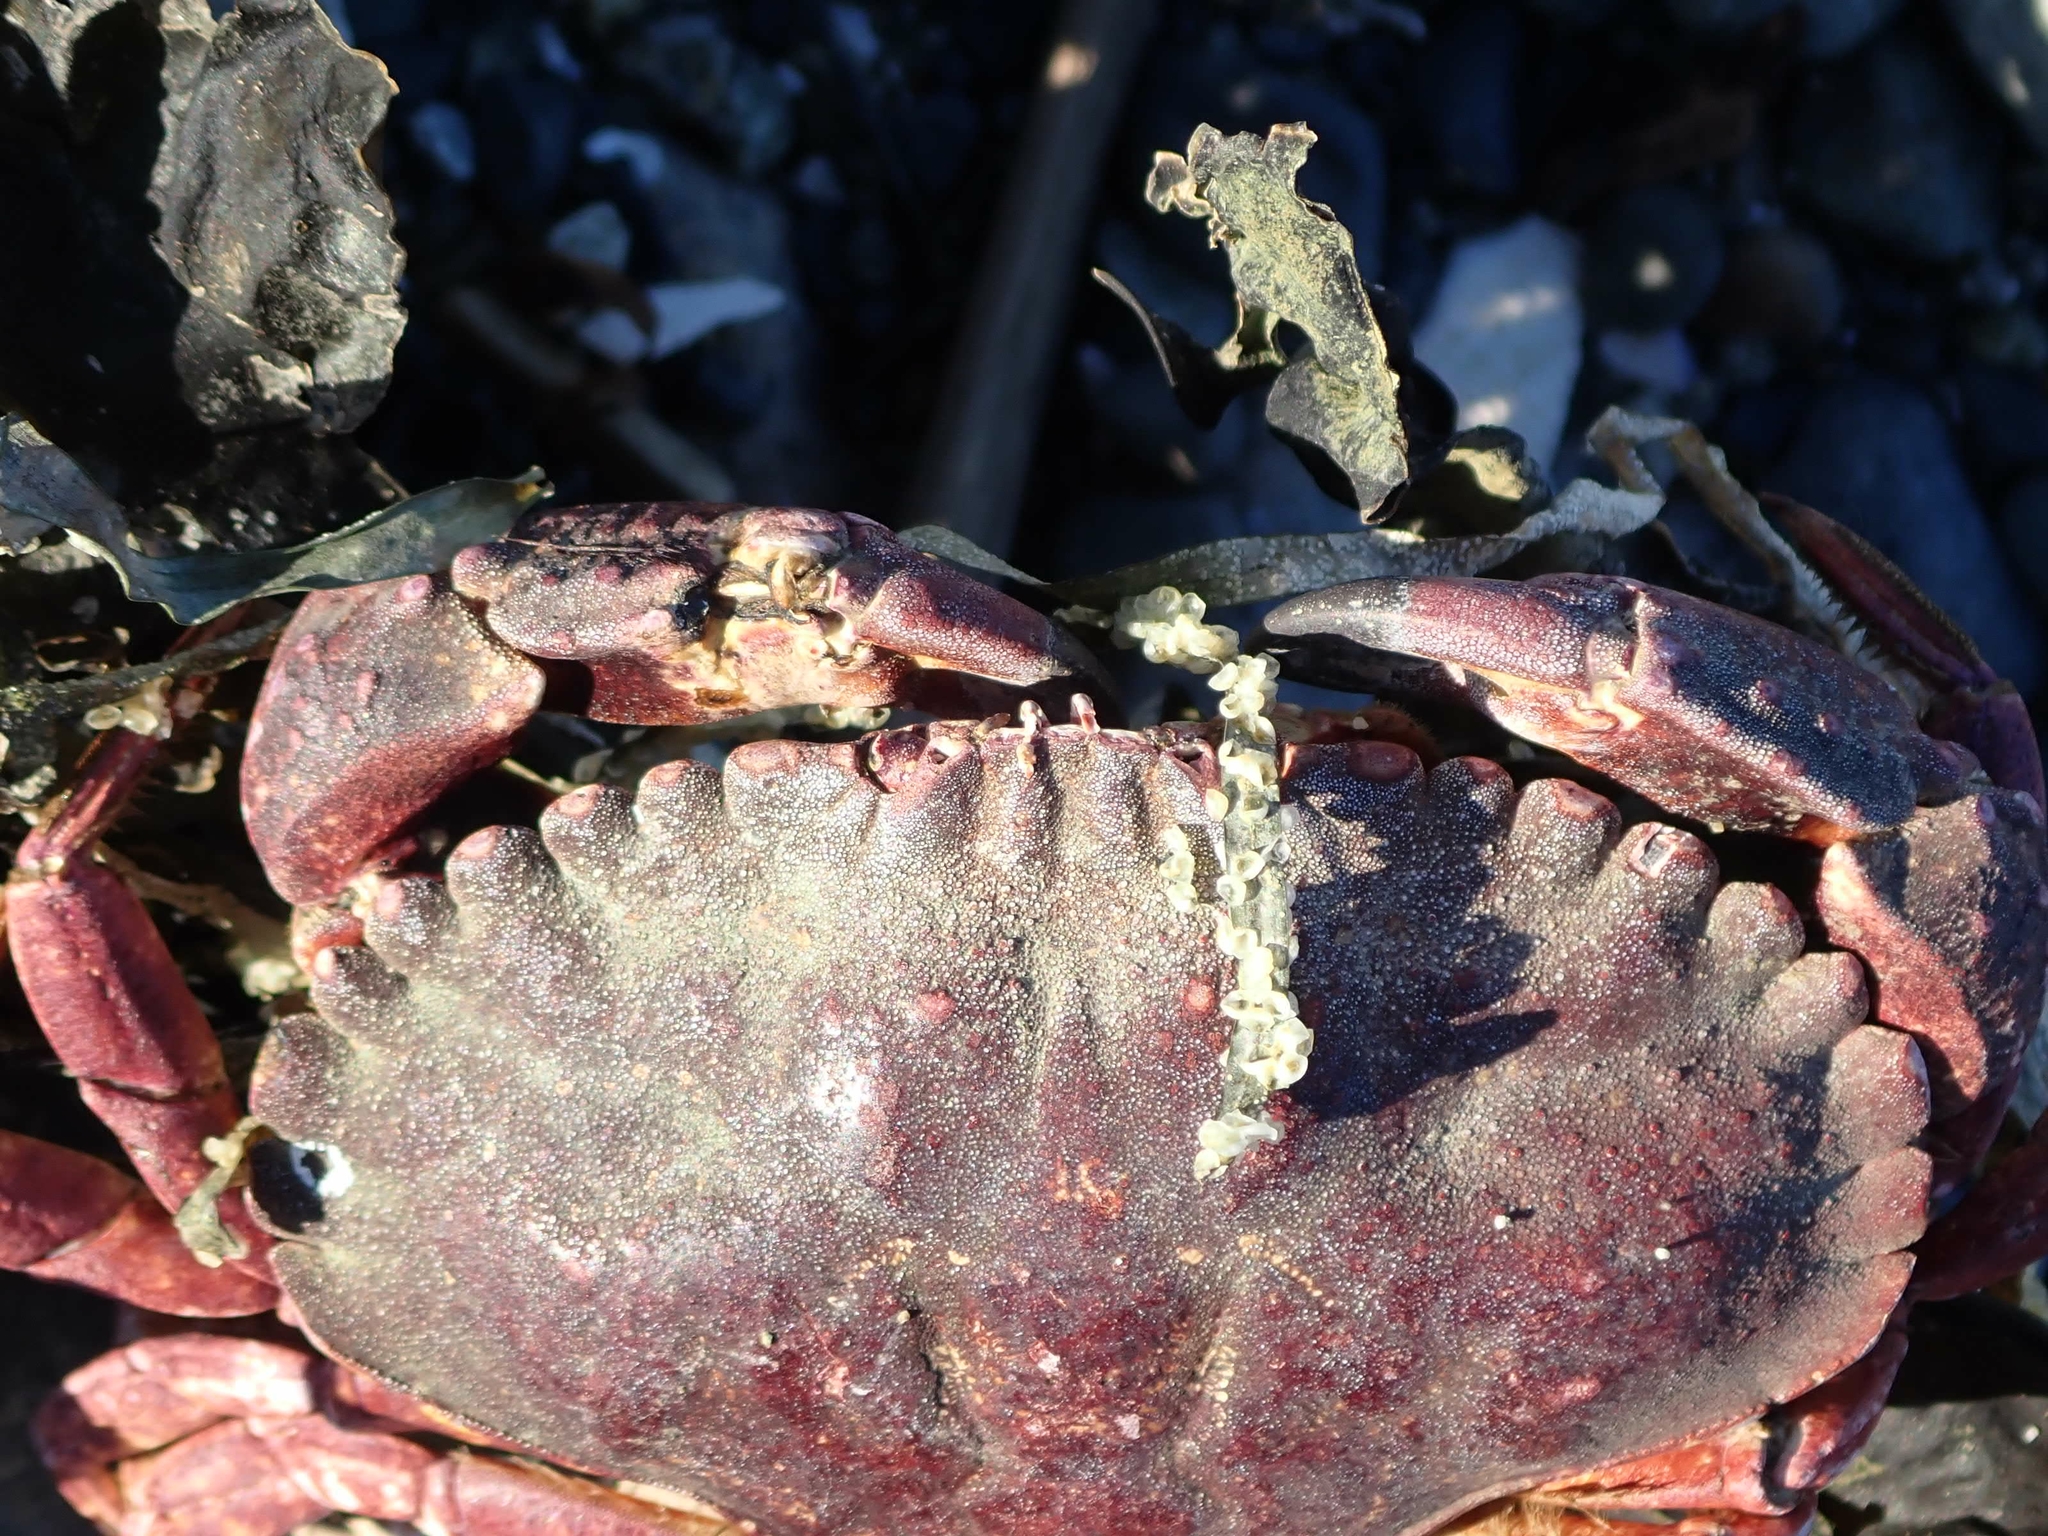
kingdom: Animalia
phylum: Arthropoda
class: Malacostraca
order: Decapoda
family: Cancridae
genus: Cancer
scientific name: Cancer productus
